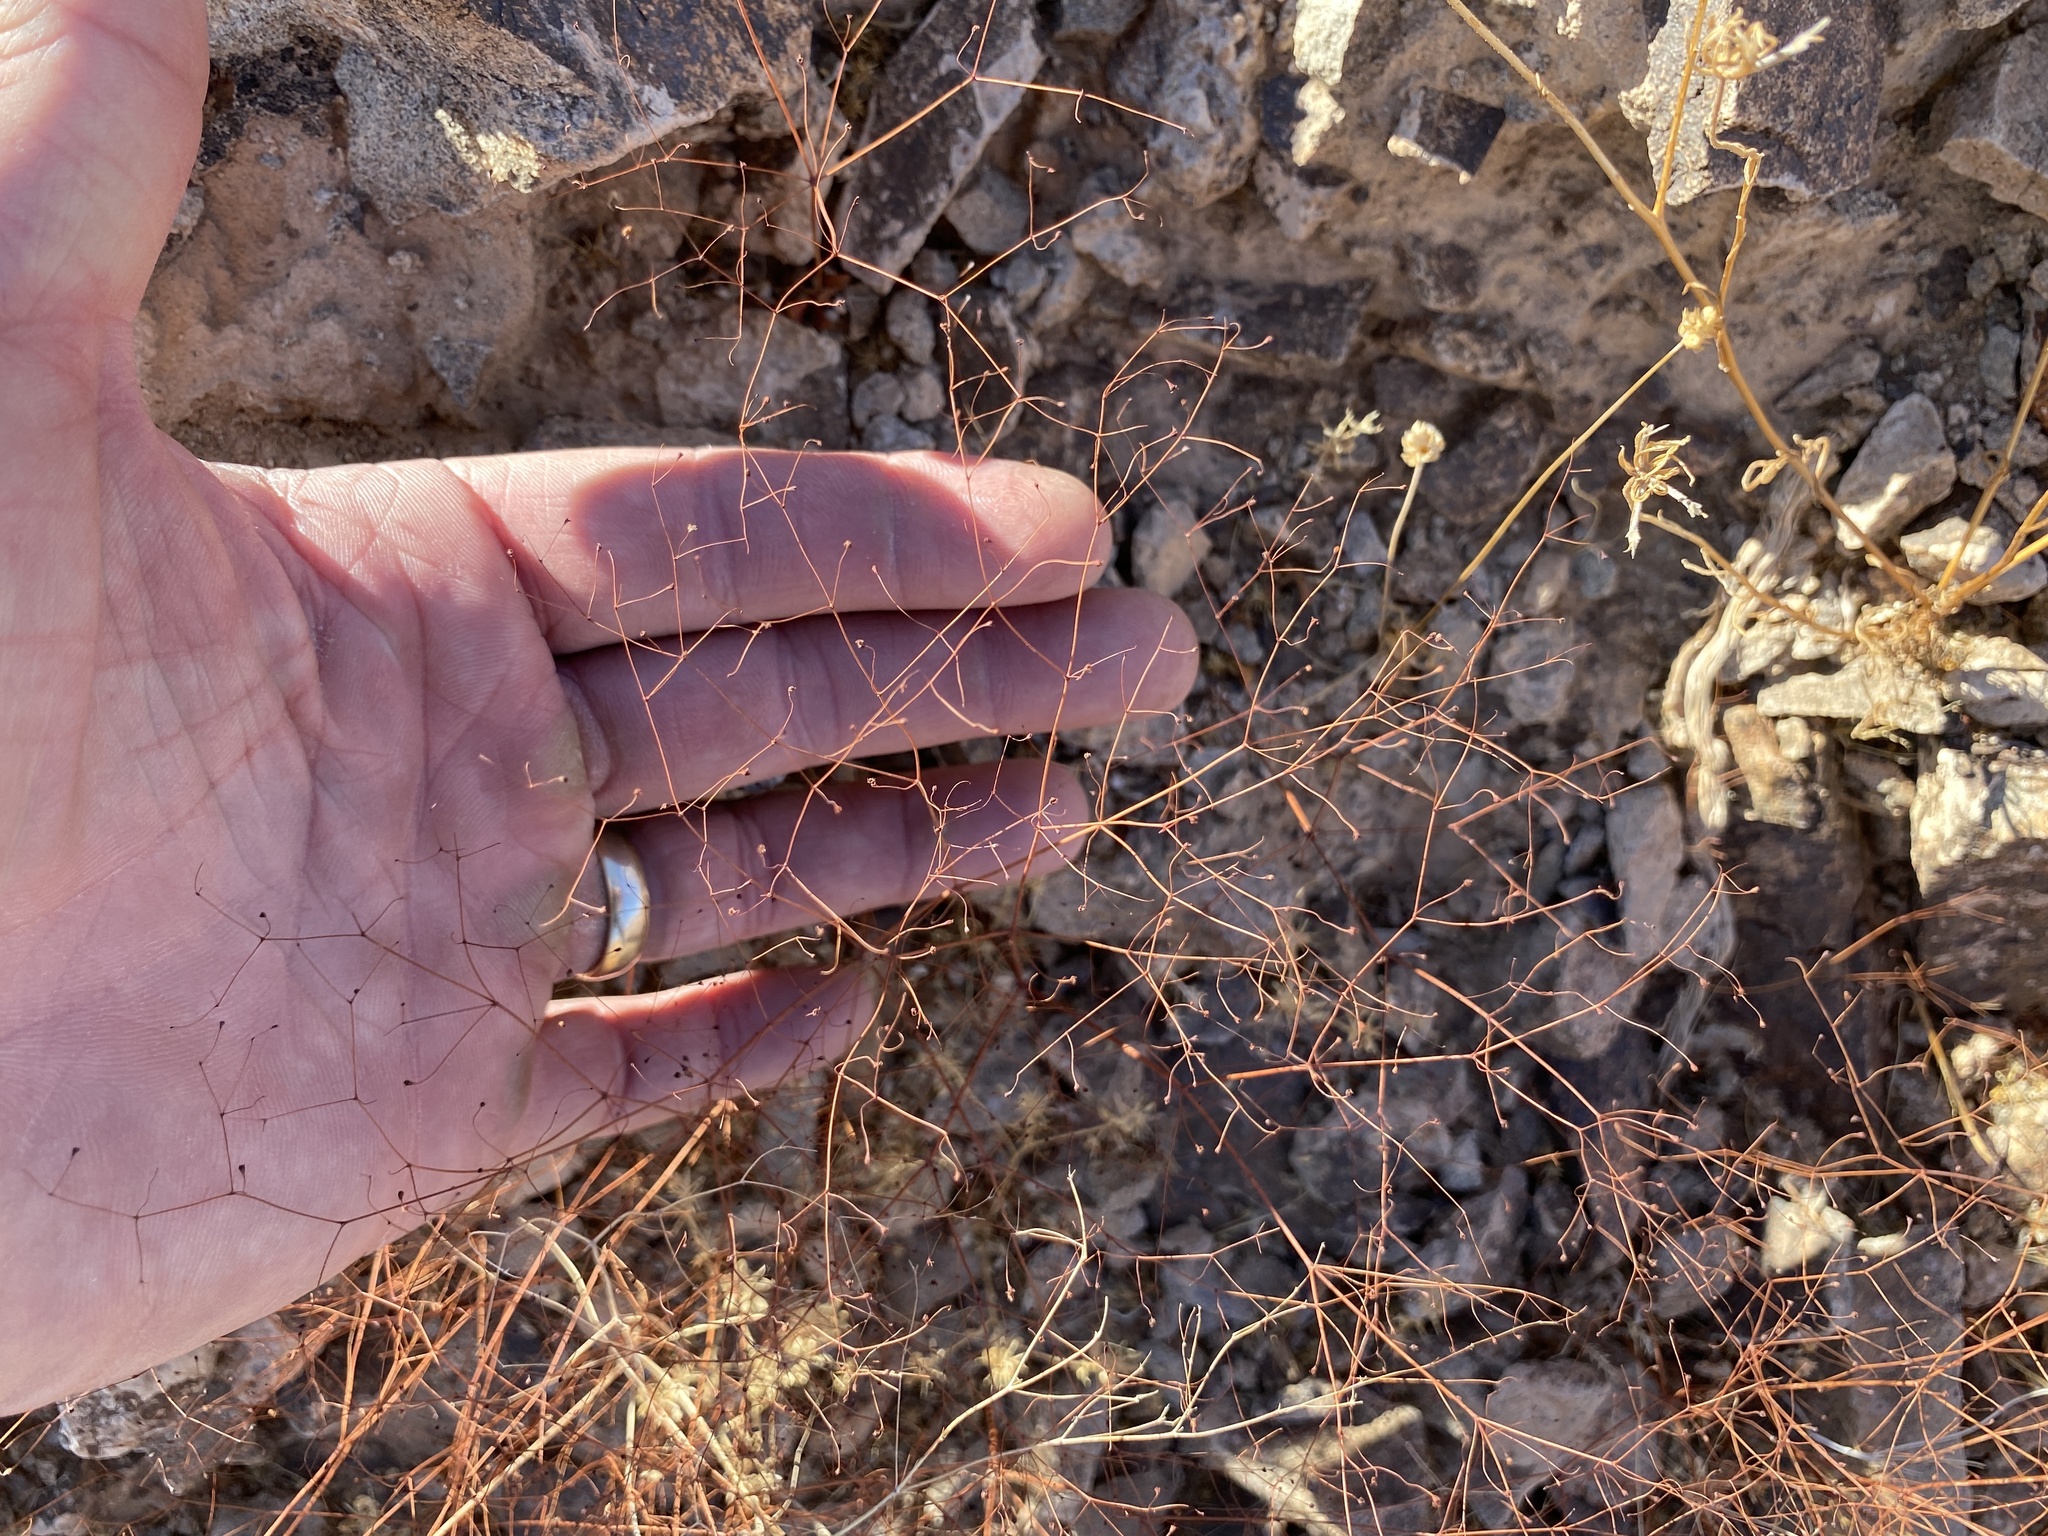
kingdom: Plantae
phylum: Tracheophyta
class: Magnoliopsida
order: Caryophyllales
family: Polygonaceae
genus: Eriogonum
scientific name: Eriogonum trichopes
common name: Little desert trumpet
